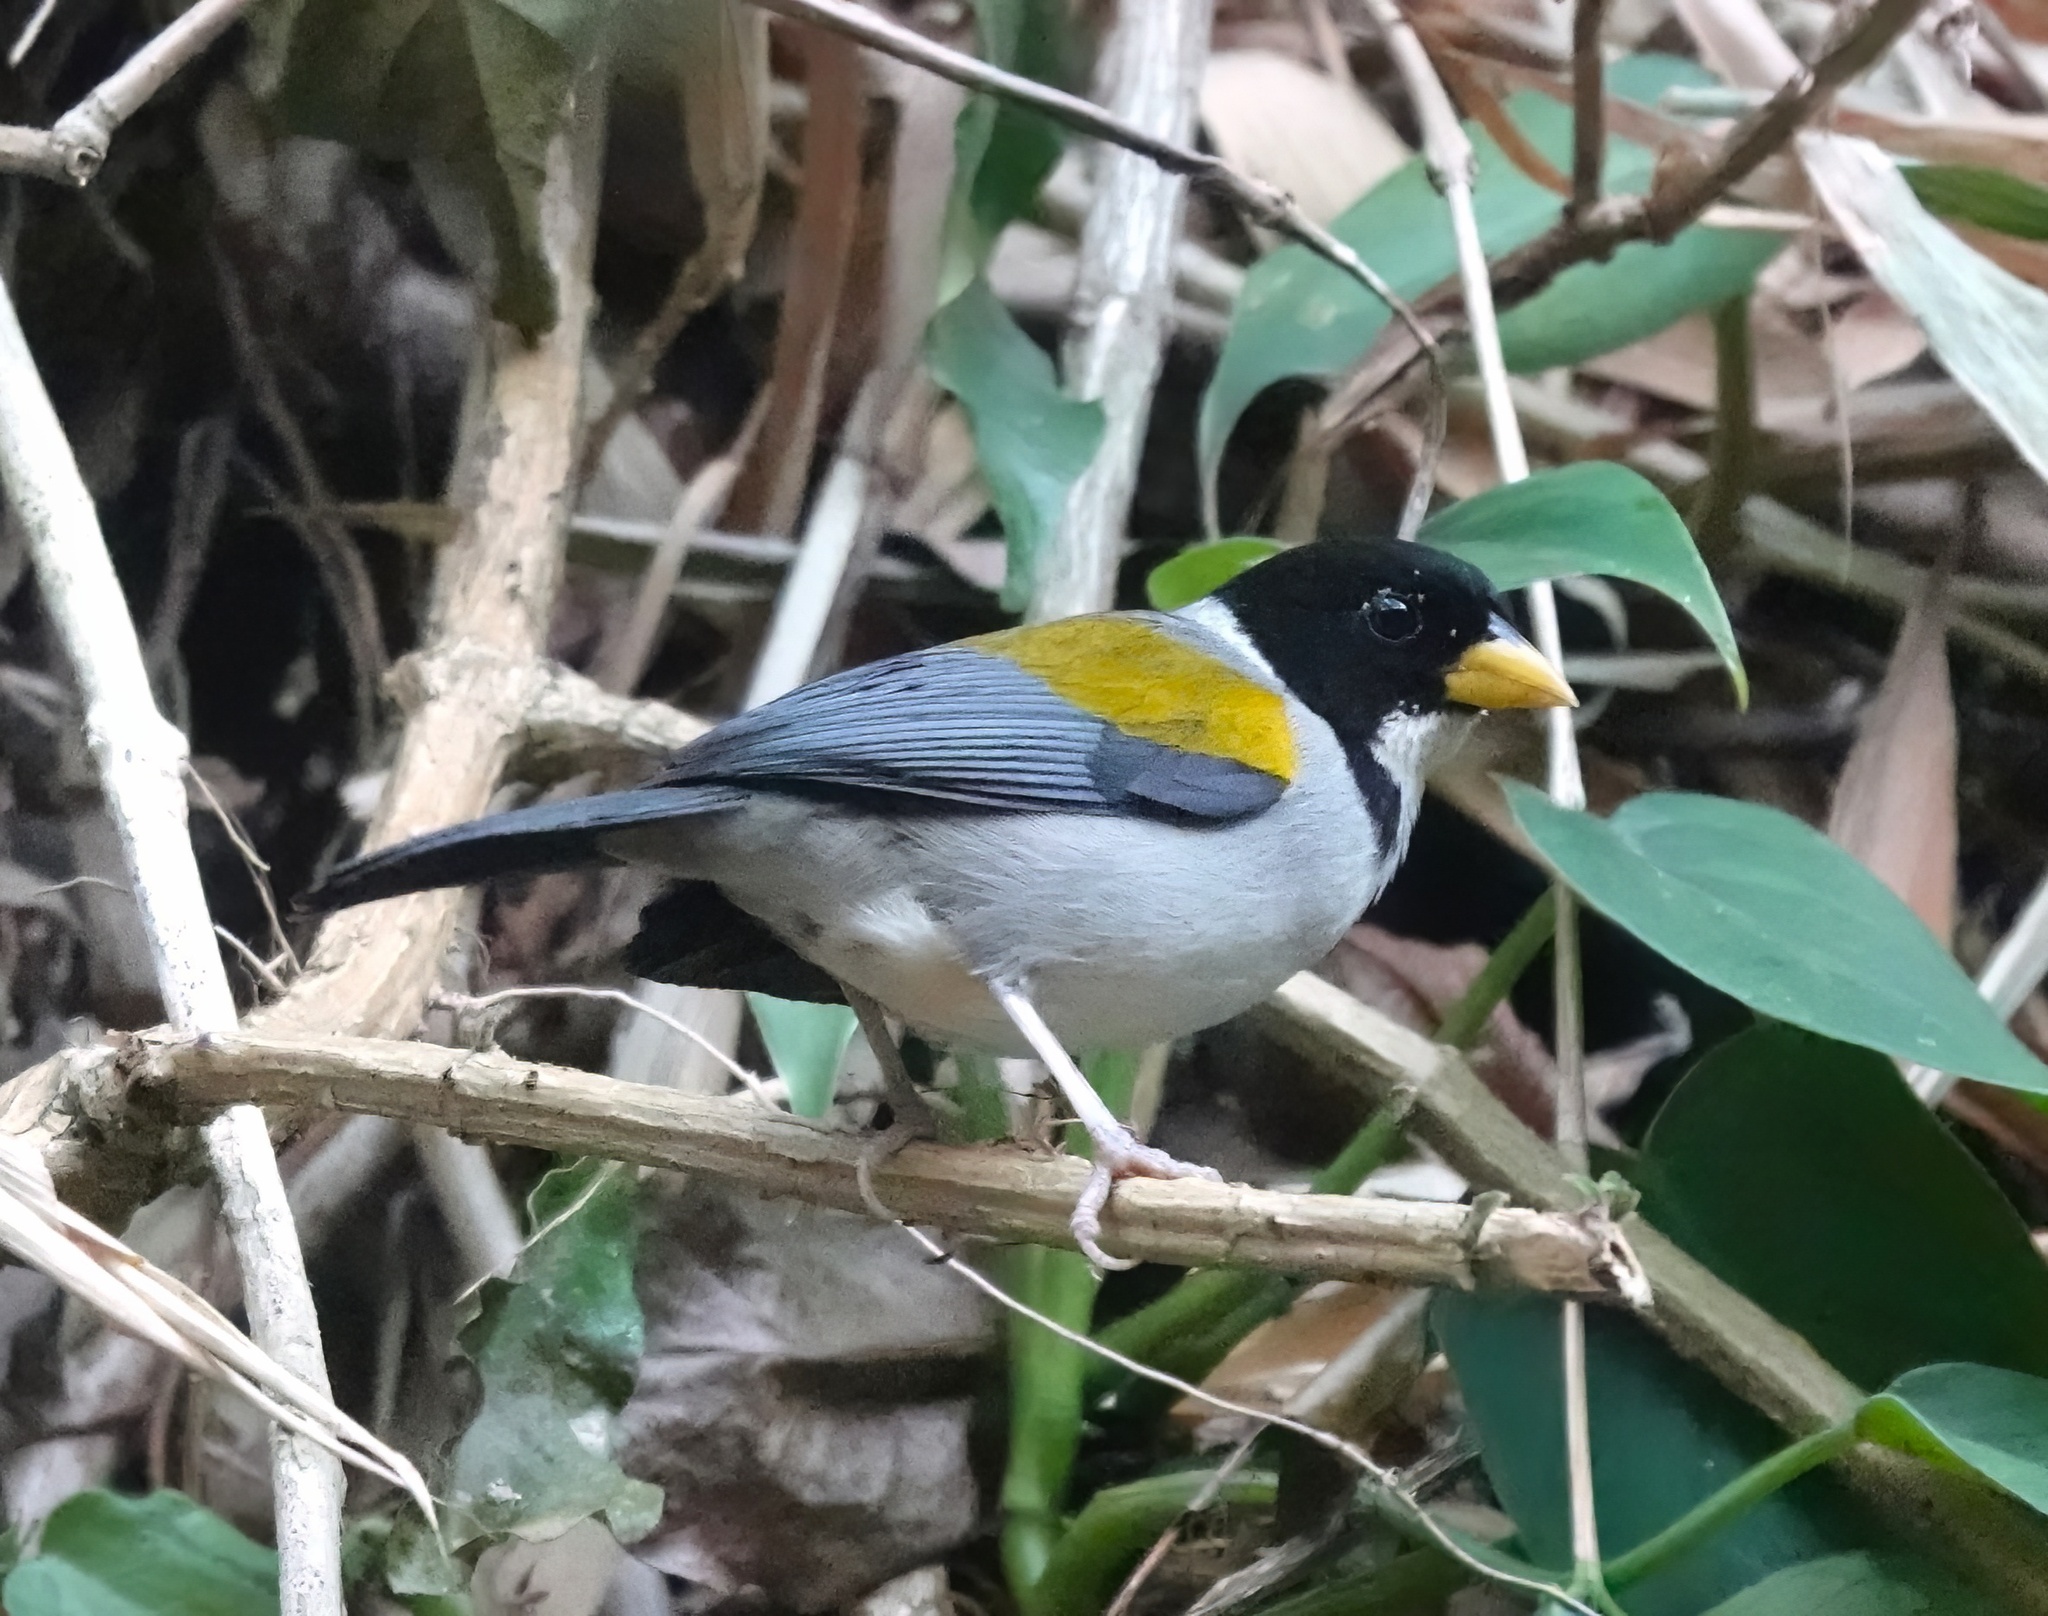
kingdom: Animalia
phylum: Chordata
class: Aves
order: Passeriformes
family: Passerellidae
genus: Arremon
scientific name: Arremon schlegeli
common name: Golden-winged sparrow
